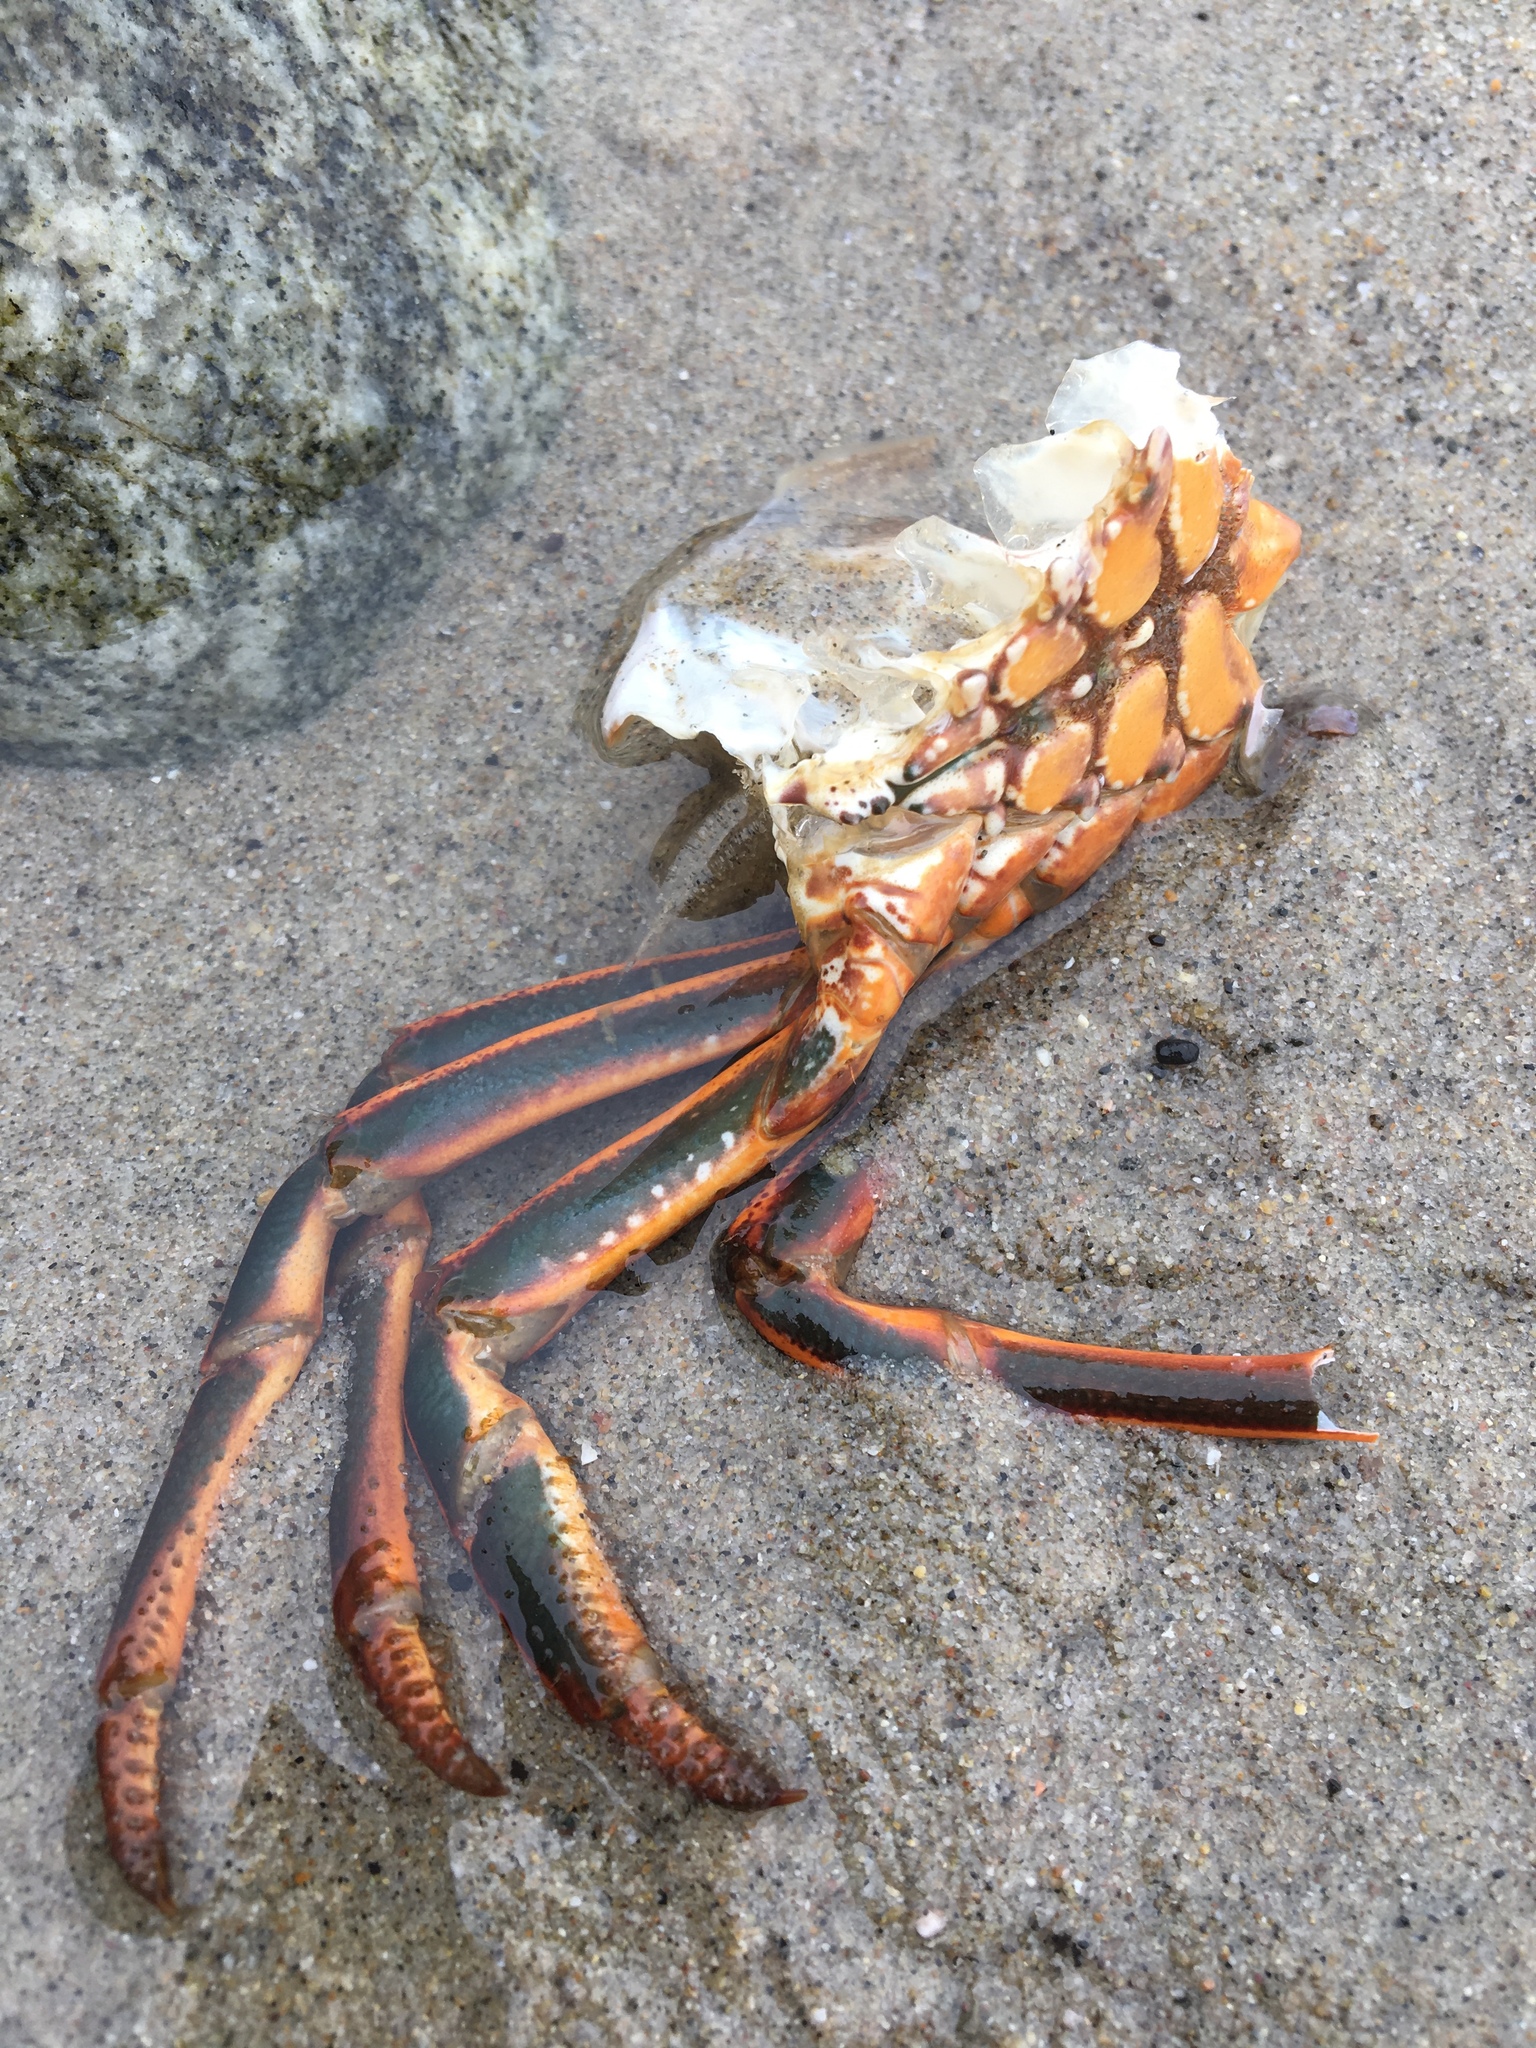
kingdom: Animalia
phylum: Arthropoda
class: Malacostraca
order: Decapoda
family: Palinuridae
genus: Panulirus
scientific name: Panulirus interruptus
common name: California spiny lobster
